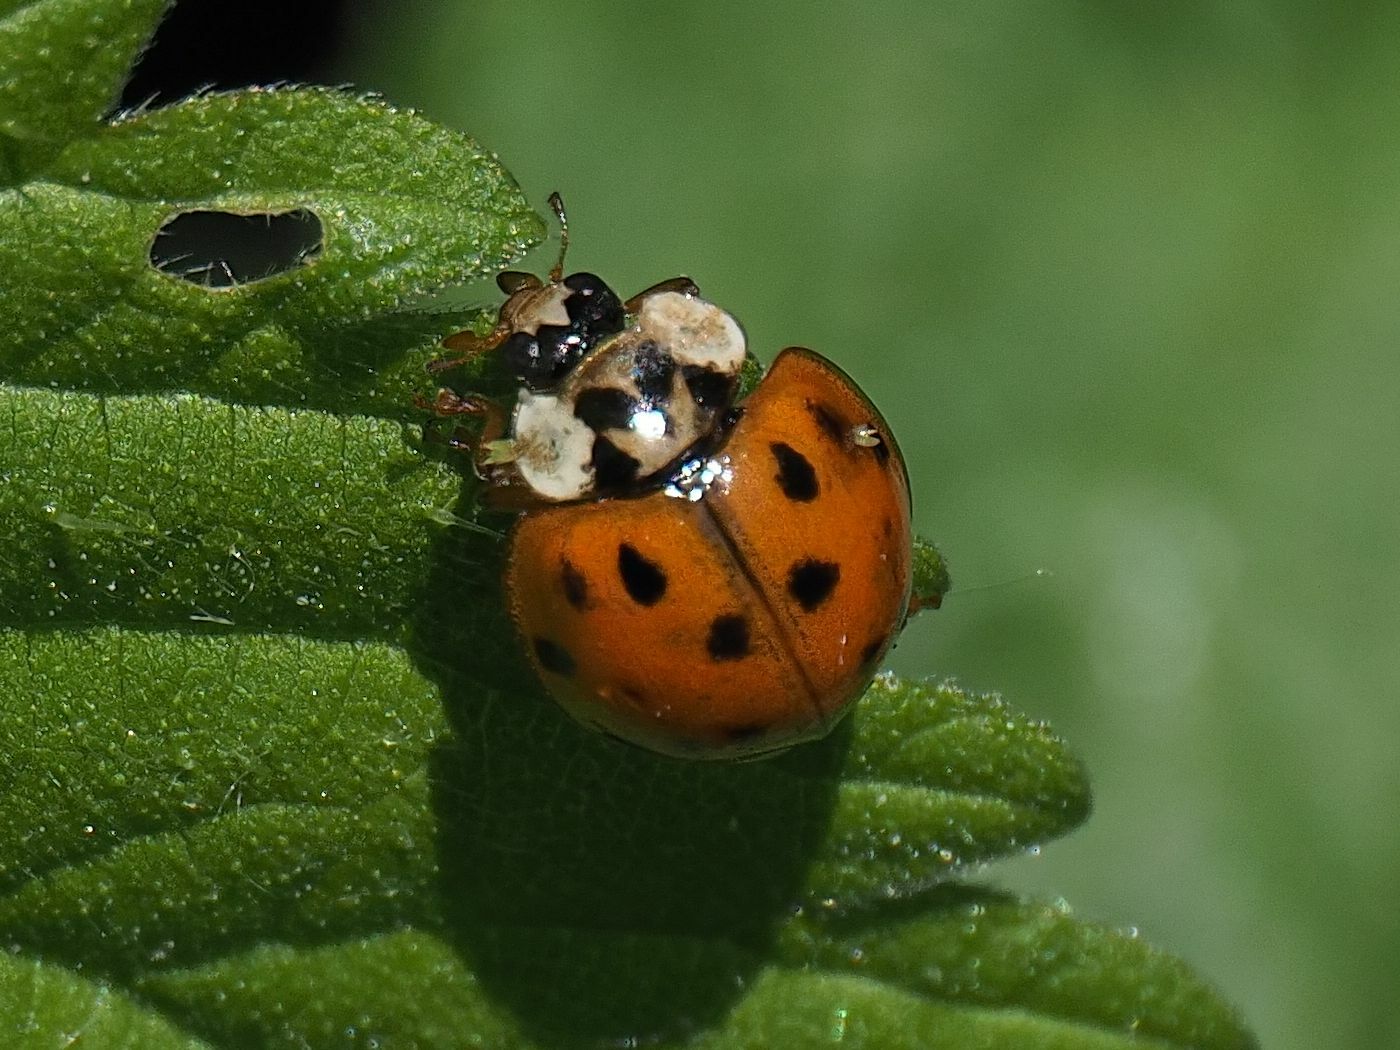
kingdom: Animalia
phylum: Arthropoda
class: Insecta
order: Coleoptera
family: Coccinellidae
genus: Harmonia
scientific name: Harmonia axyridis
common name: Harlequin ladybird
